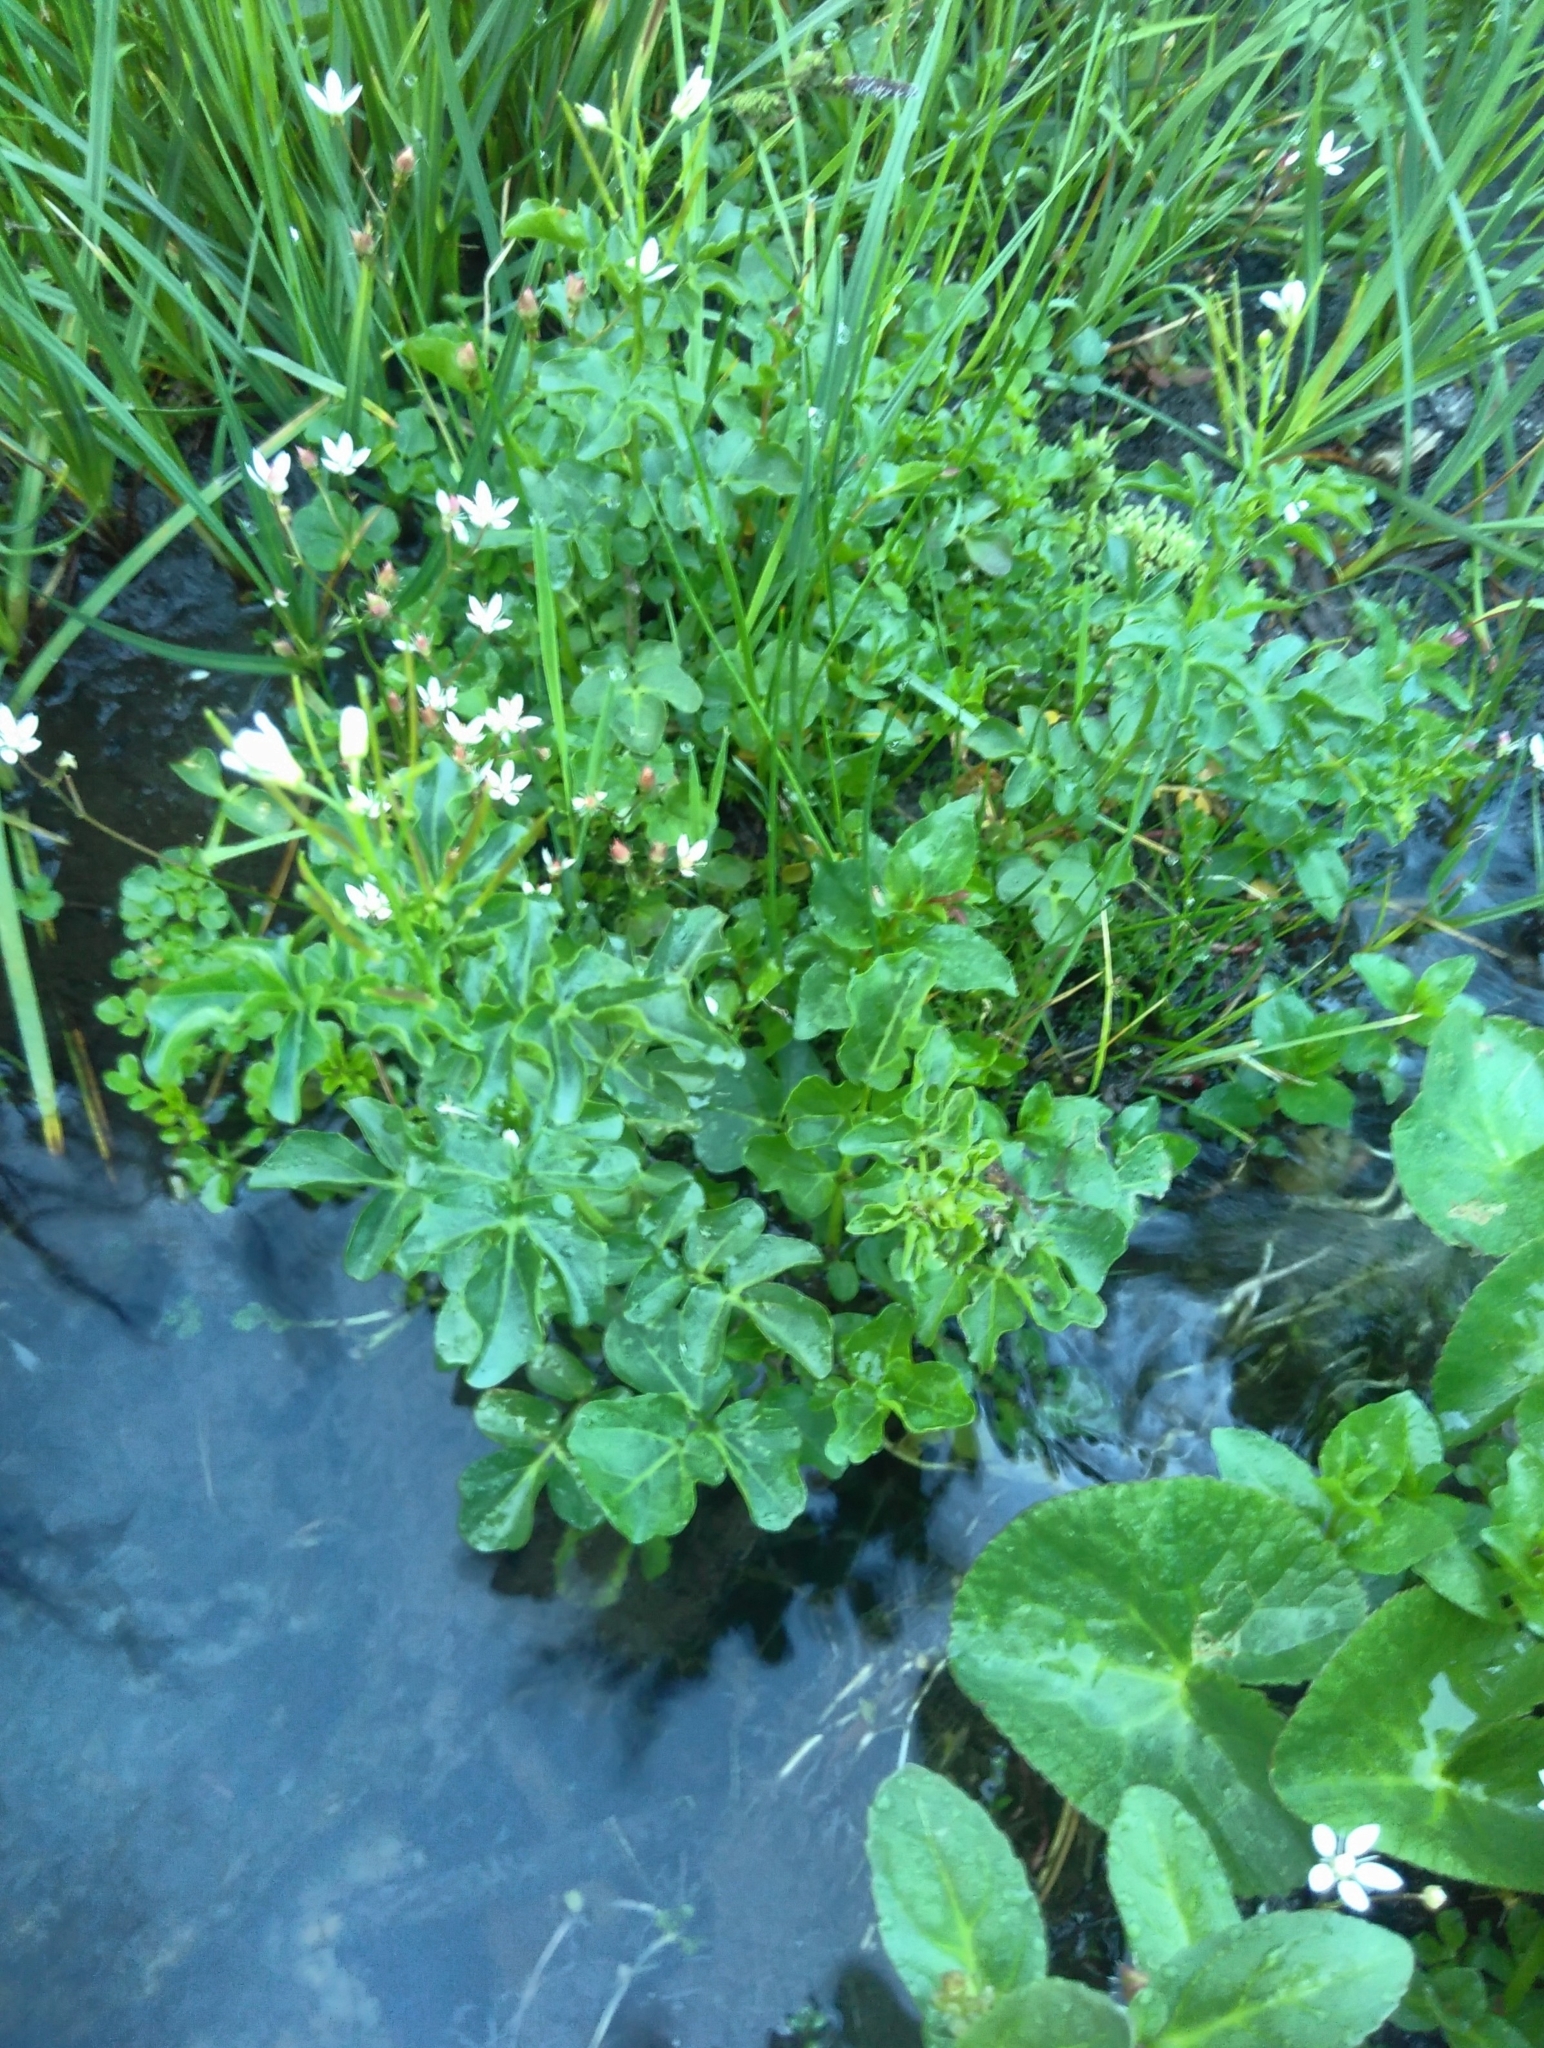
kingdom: Plantae
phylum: Tracheophyta
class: Magnoliopsida
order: Brassicales
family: Brassicaceae
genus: Cardamine
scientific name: Cardamine amara
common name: Large bitter-cress
